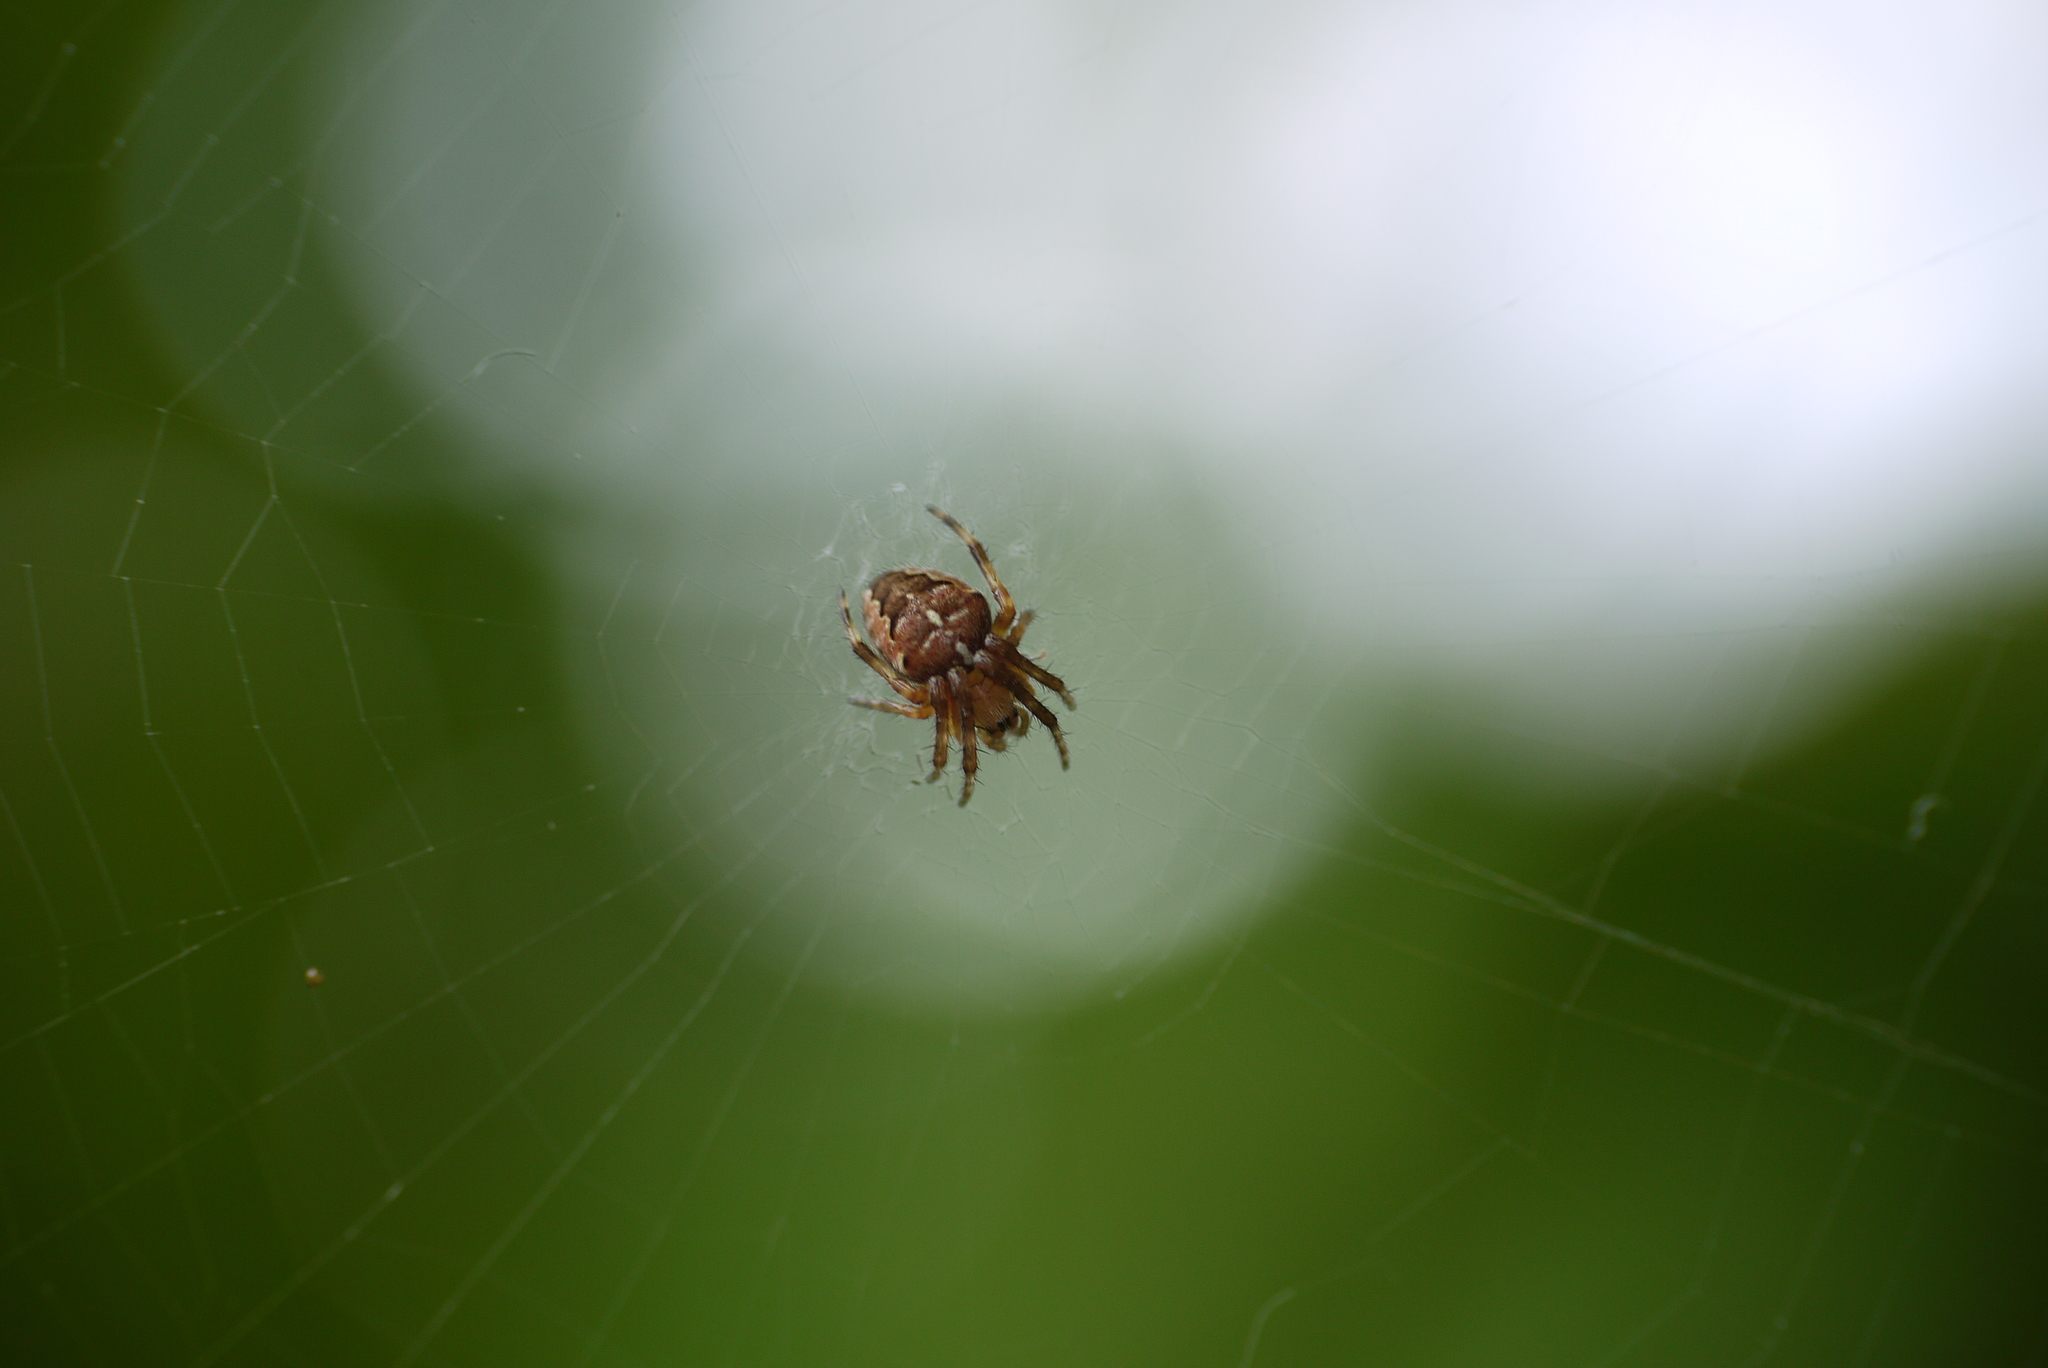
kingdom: Animalia
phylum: Arthropoda
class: Arachnida
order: Araneae
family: Araneidae
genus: Araneus
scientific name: Araneus diadematus
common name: Cross orbweaver
